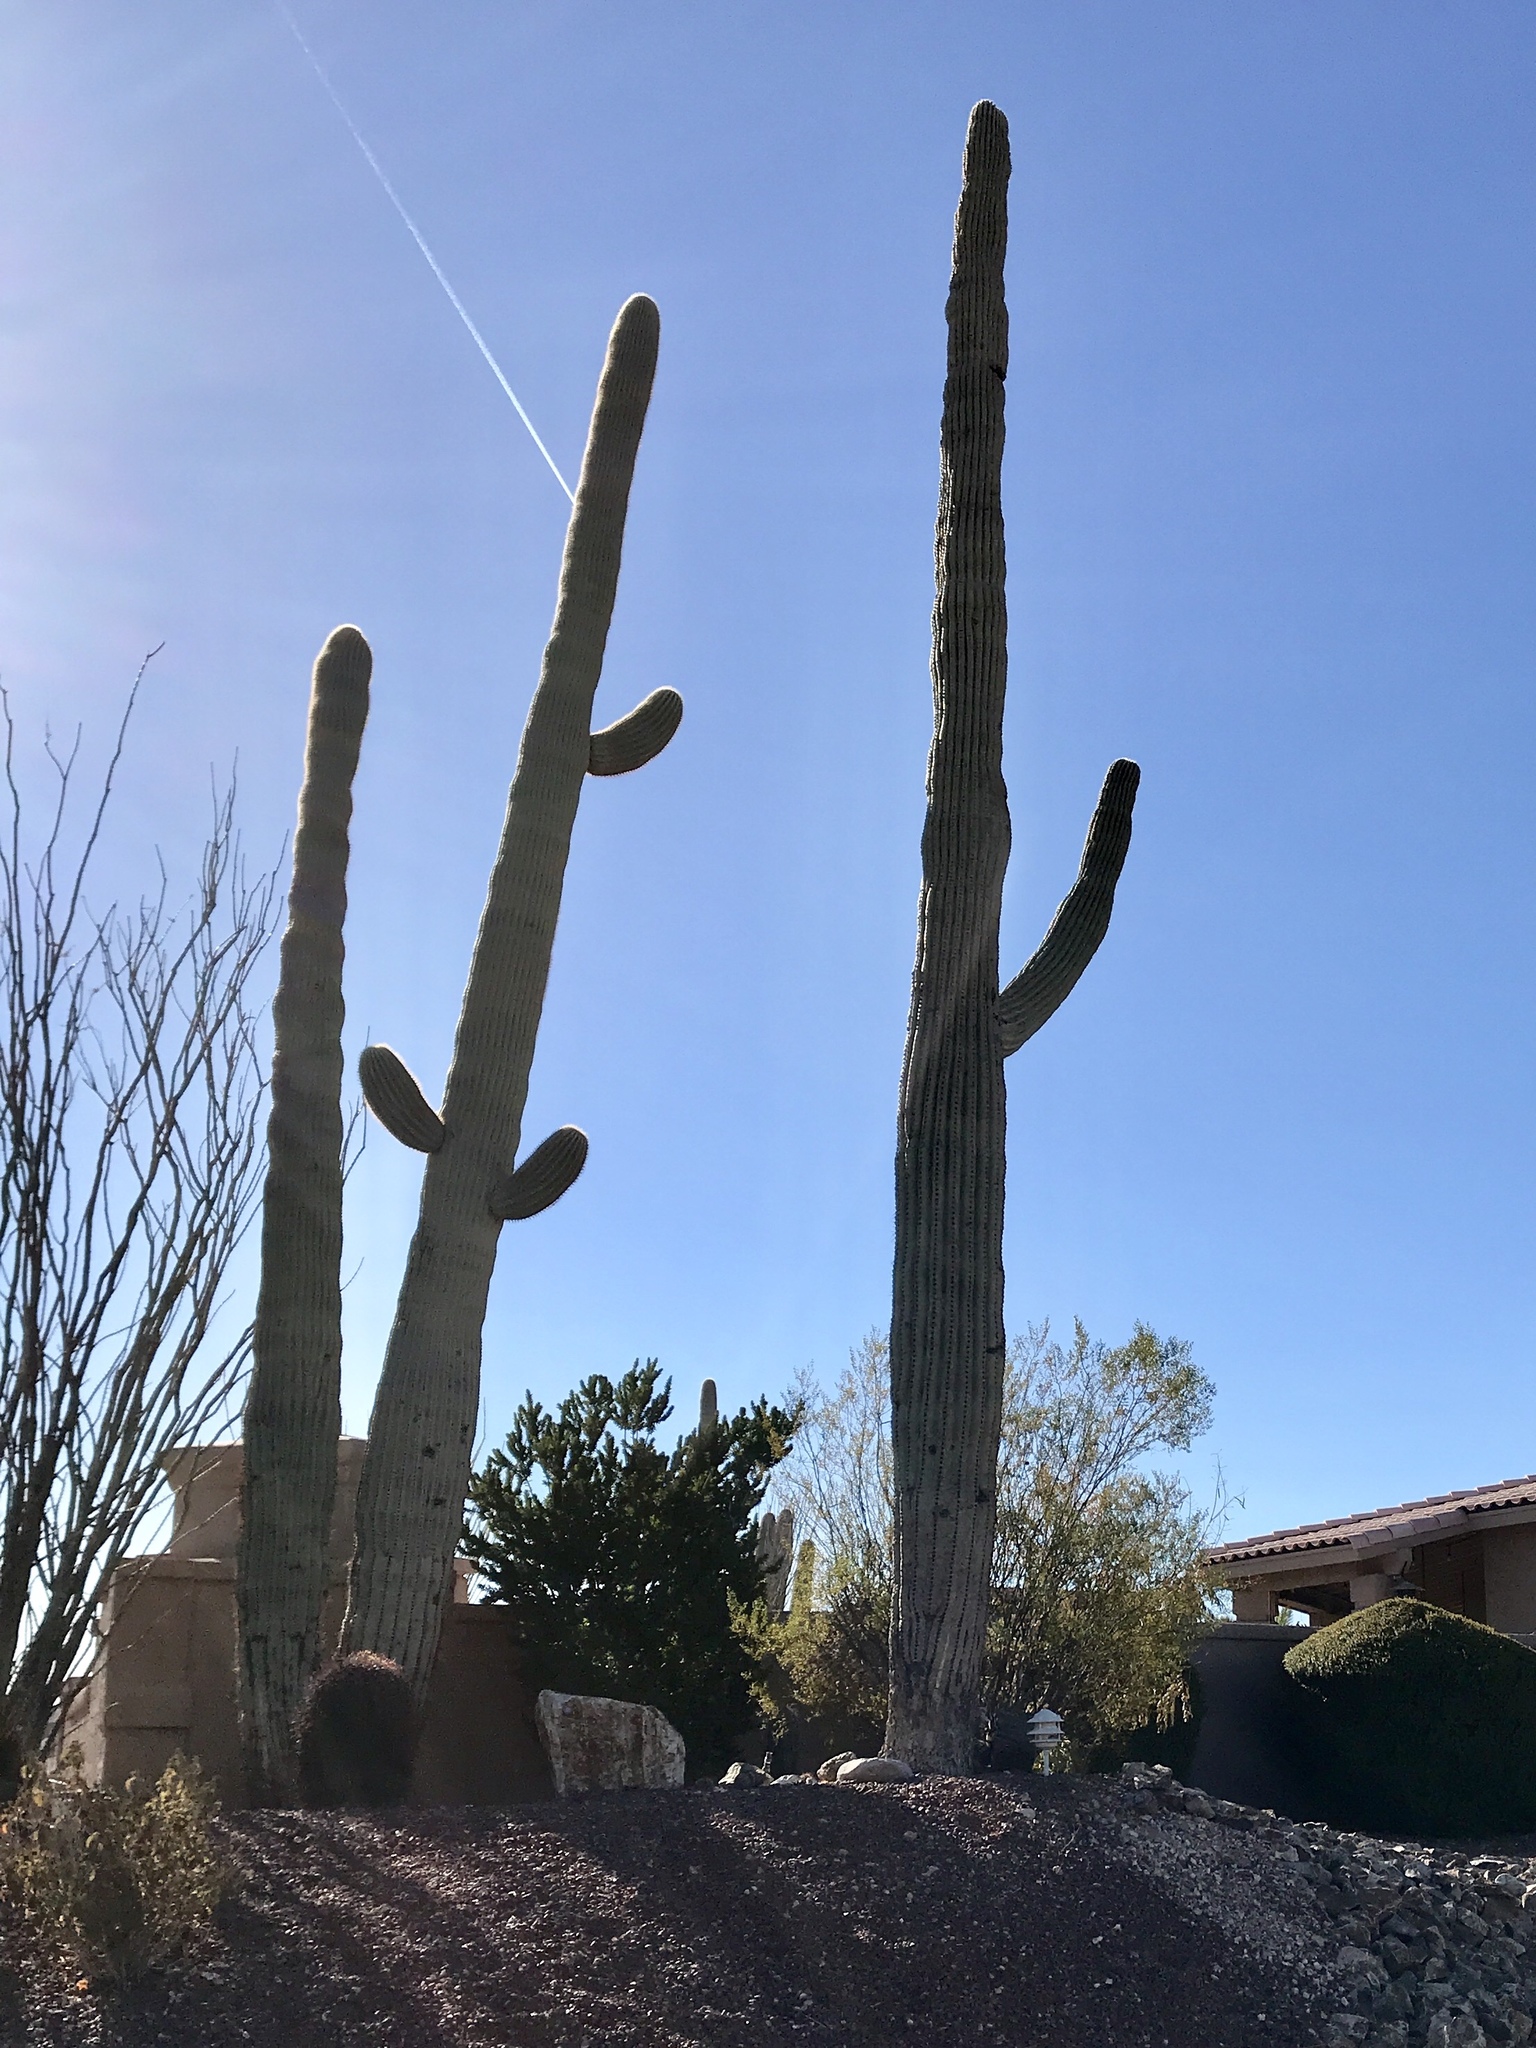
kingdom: Plantae
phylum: Tracheophyta
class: Magnoliopsida
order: Caryophyllales
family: Cactaceae
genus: Carnegiea
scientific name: Carnegiea gigantea
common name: Saguaro
